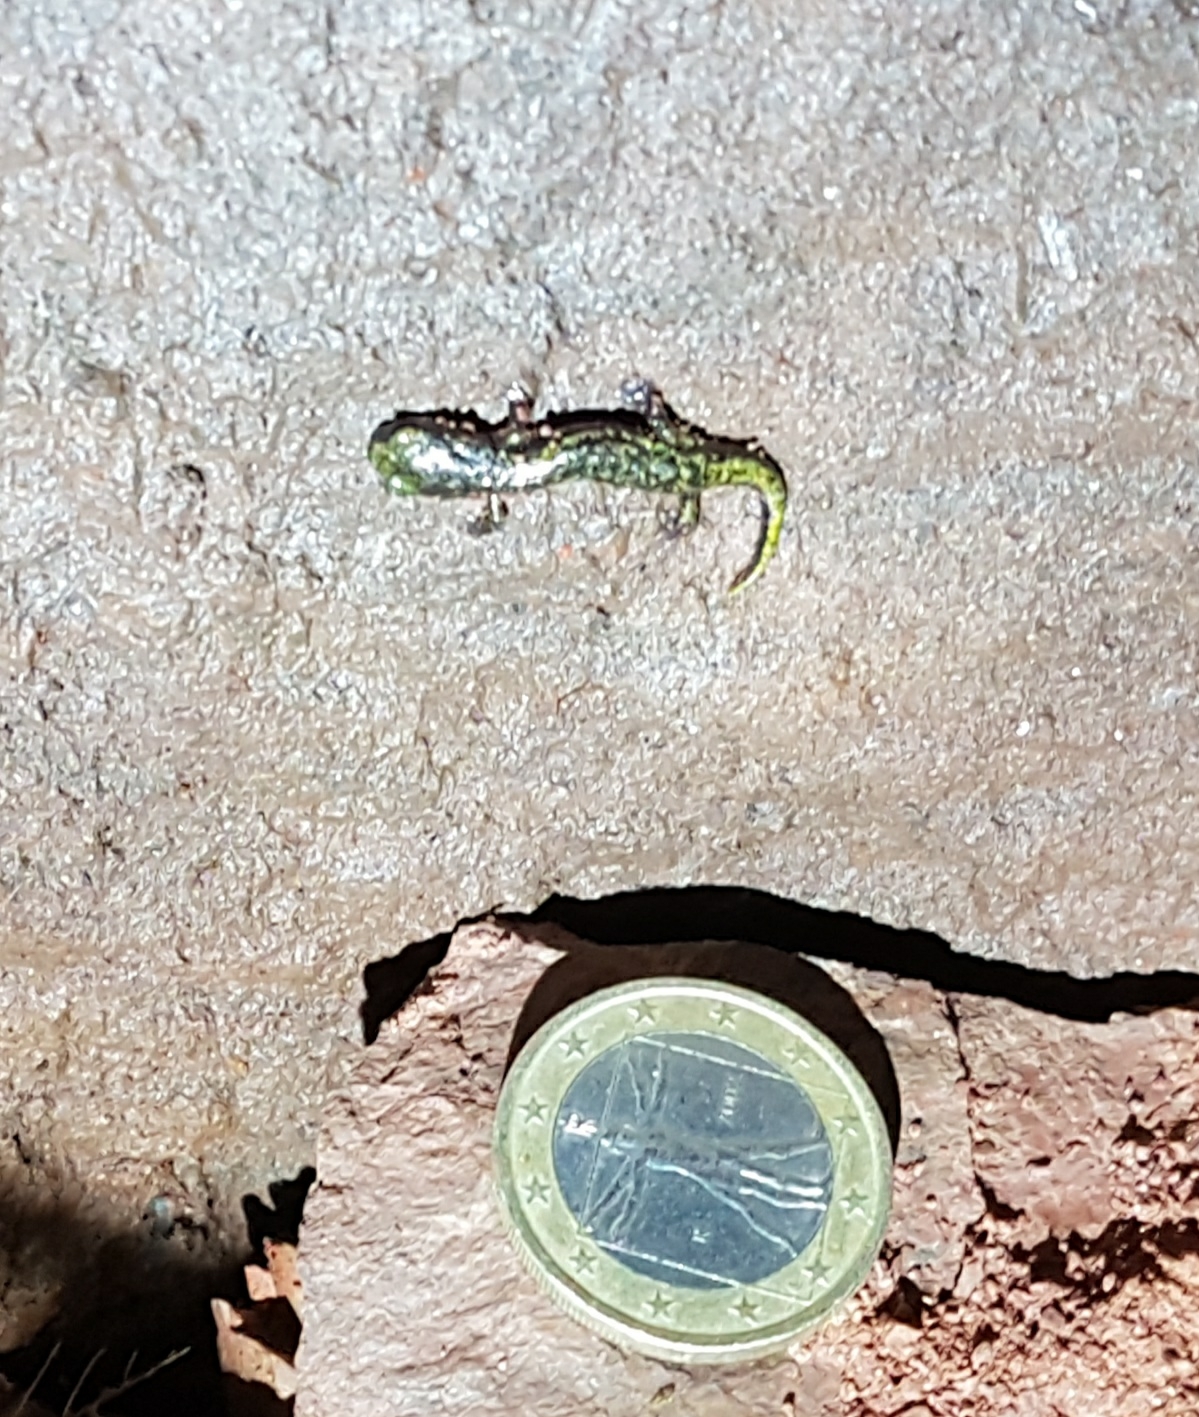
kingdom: Animalia
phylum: Chordata
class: Amphibia
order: Caudata
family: Plethodontidae
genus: Speleomantes
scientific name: Speleomantes strinatii
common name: French cave salamander
